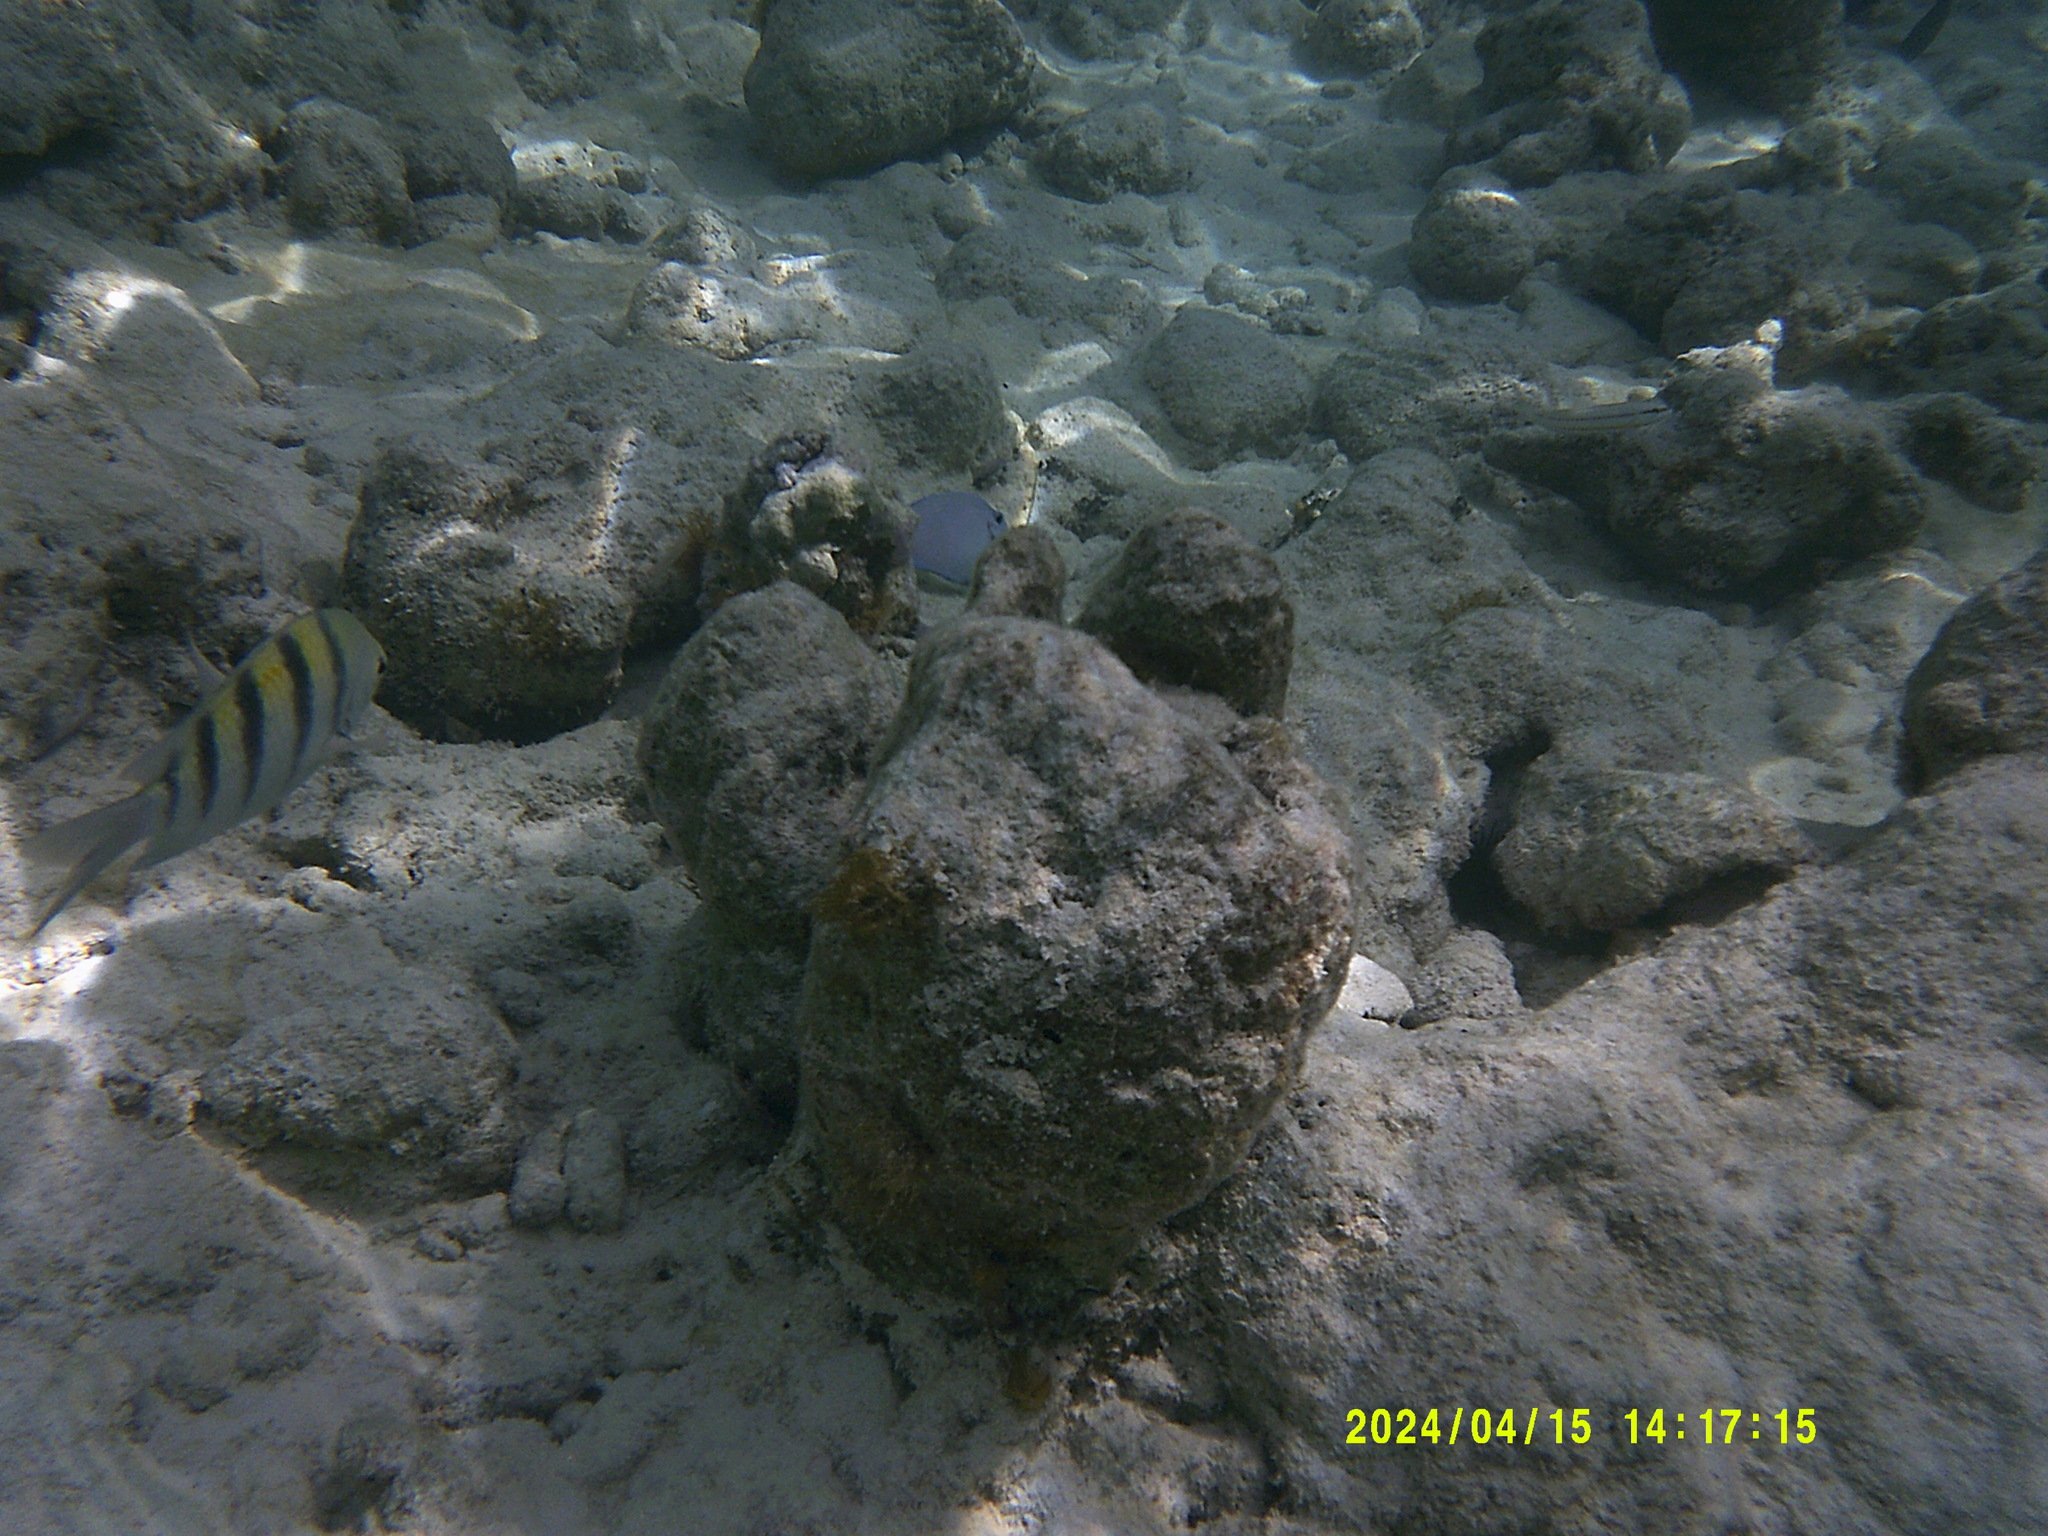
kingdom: Animalia
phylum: Chordata
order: Perciformes
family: Pomacentridae
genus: Abudefduf
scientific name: Abudefduf saxatilis
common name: Sergeant major
